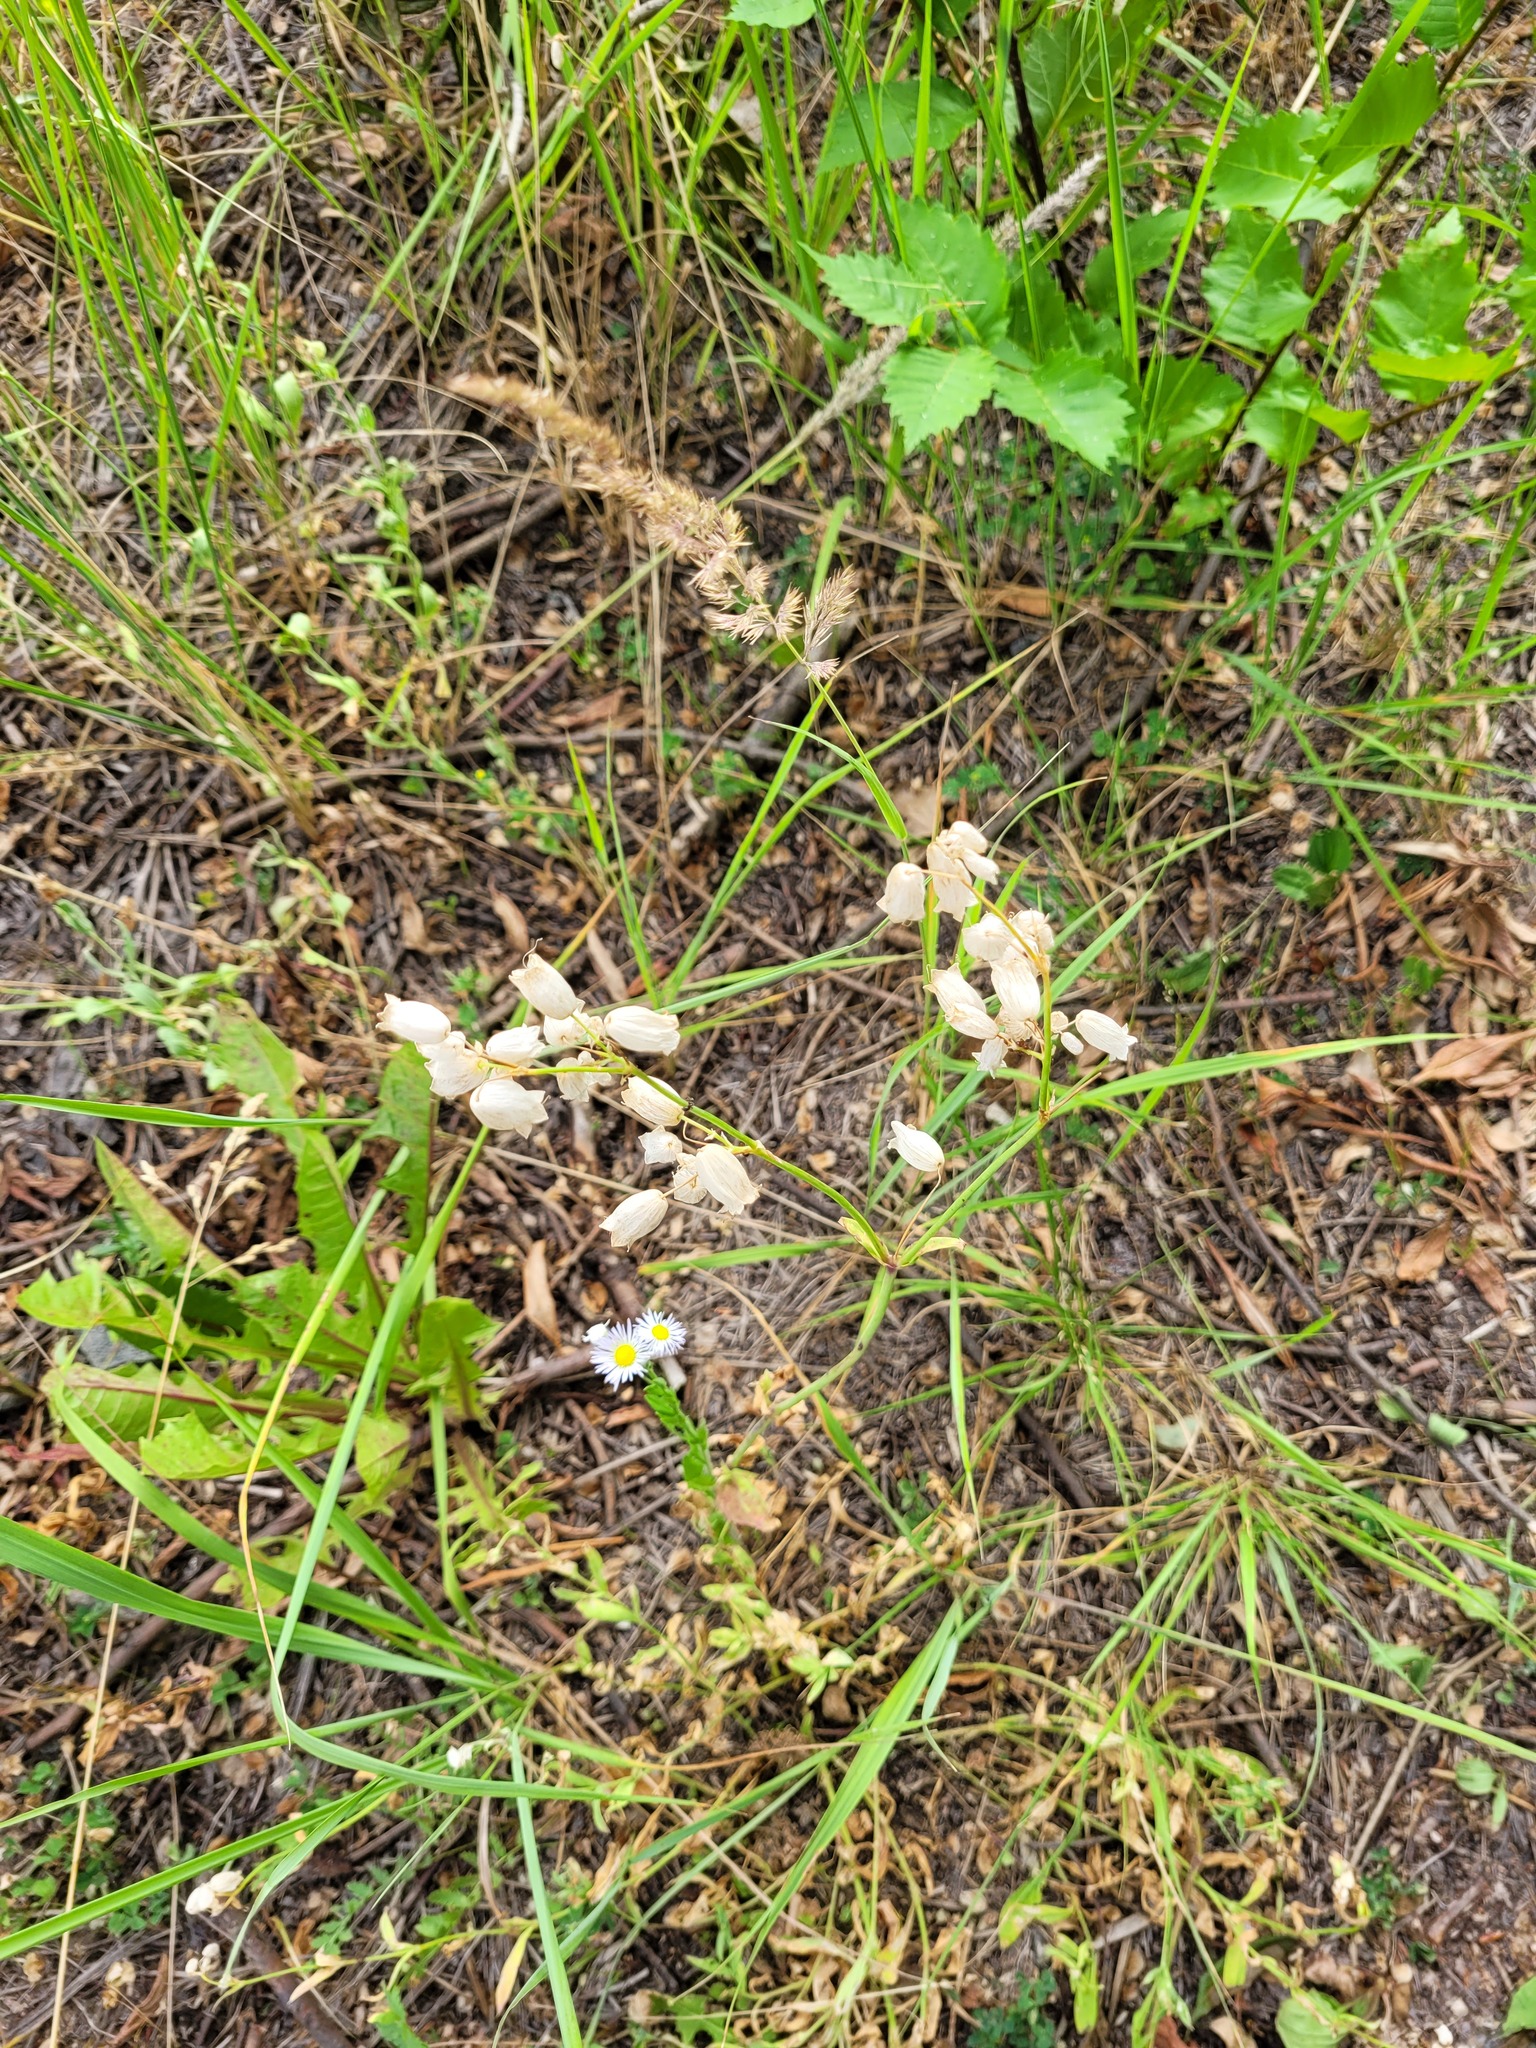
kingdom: Plantae
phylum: Tracheophyta
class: Magnoliopsida
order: Caryophyllales
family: Caryophyllaceae
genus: Silene
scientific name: Silene vulgaris
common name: Bladder campion
